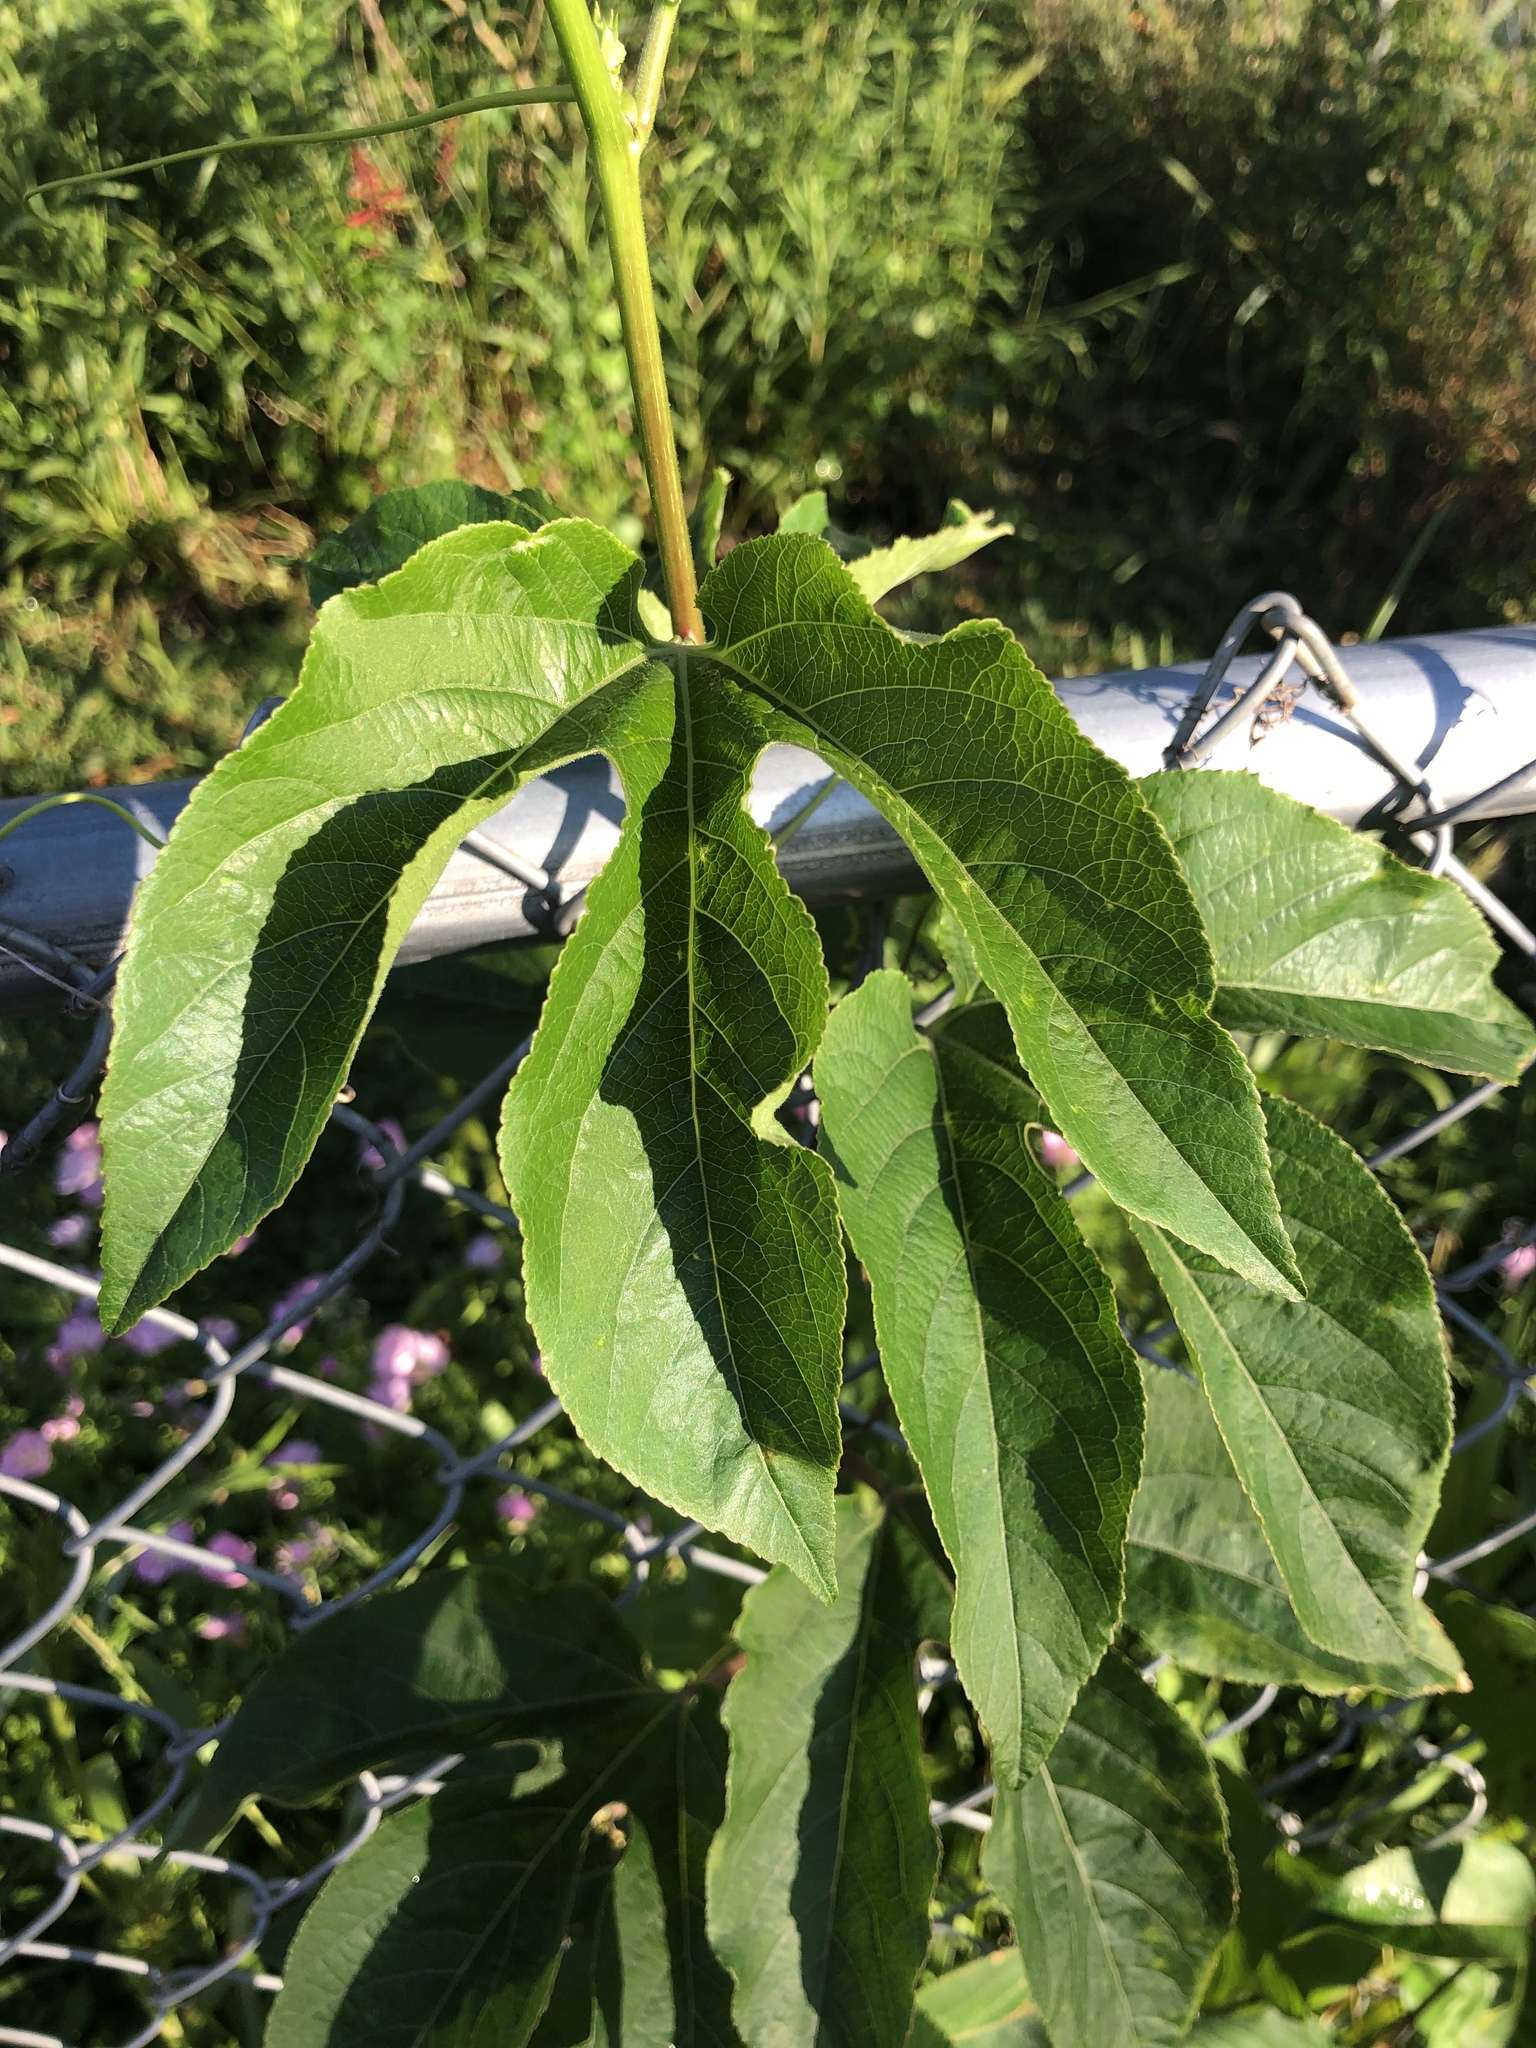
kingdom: Plantae
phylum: Tracheophyta
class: Magnoliopsida
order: Malpighiales
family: Passifloraceae
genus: Passiflora
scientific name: Passiflora incarnata
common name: Apricot-vine
